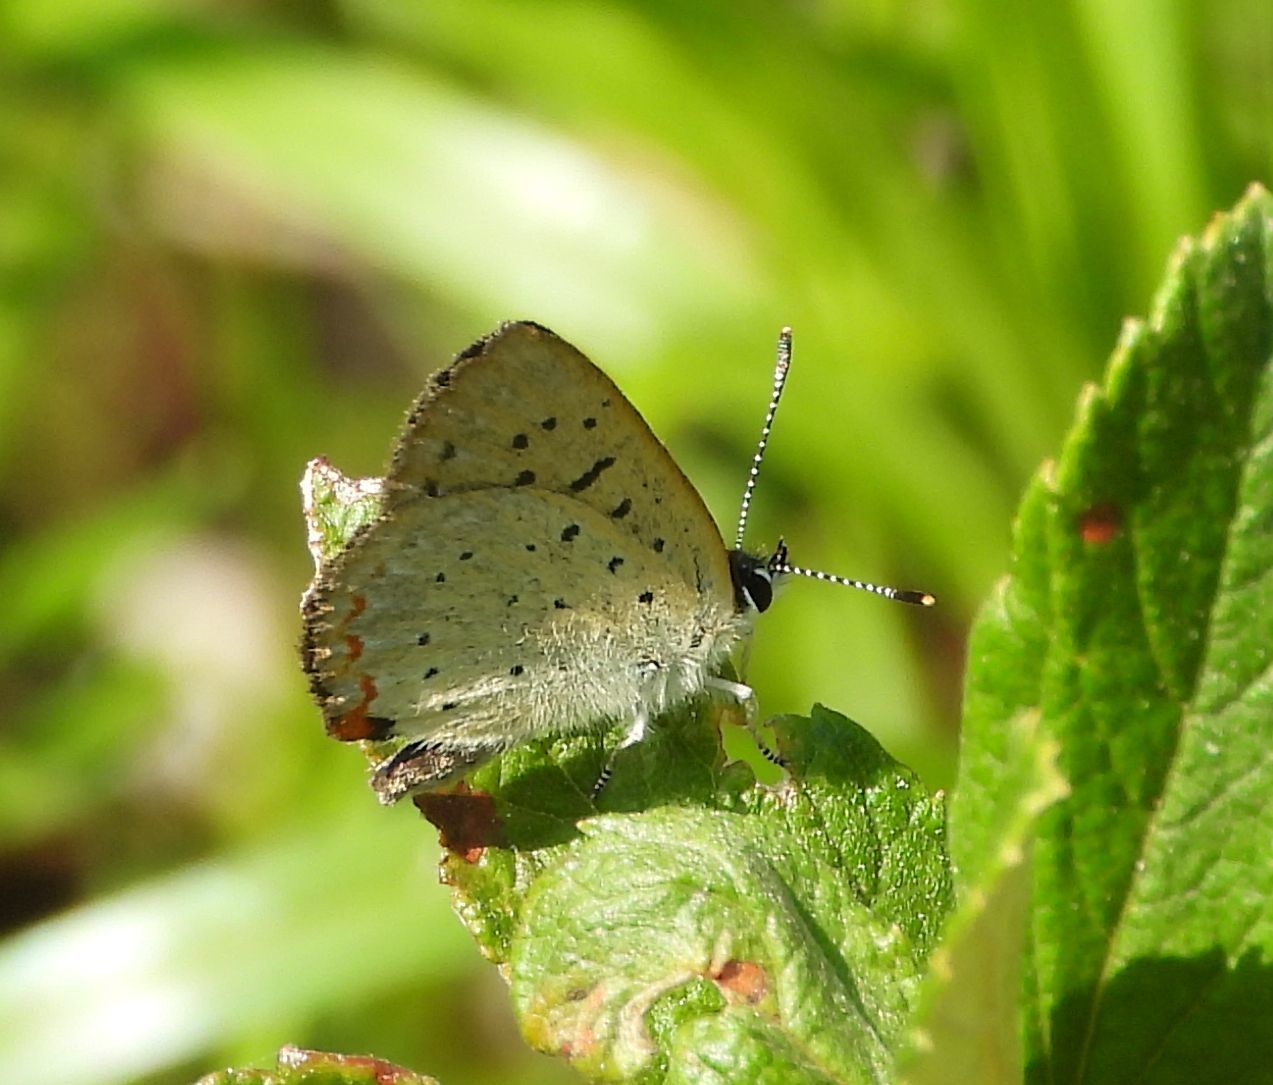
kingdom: Animalia
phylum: Arthropoda
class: Insecta
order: Lepidoptera
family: Lycaenidae
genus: Tharsalea
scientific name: Tharsalea epixanthe
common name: Bog copper
